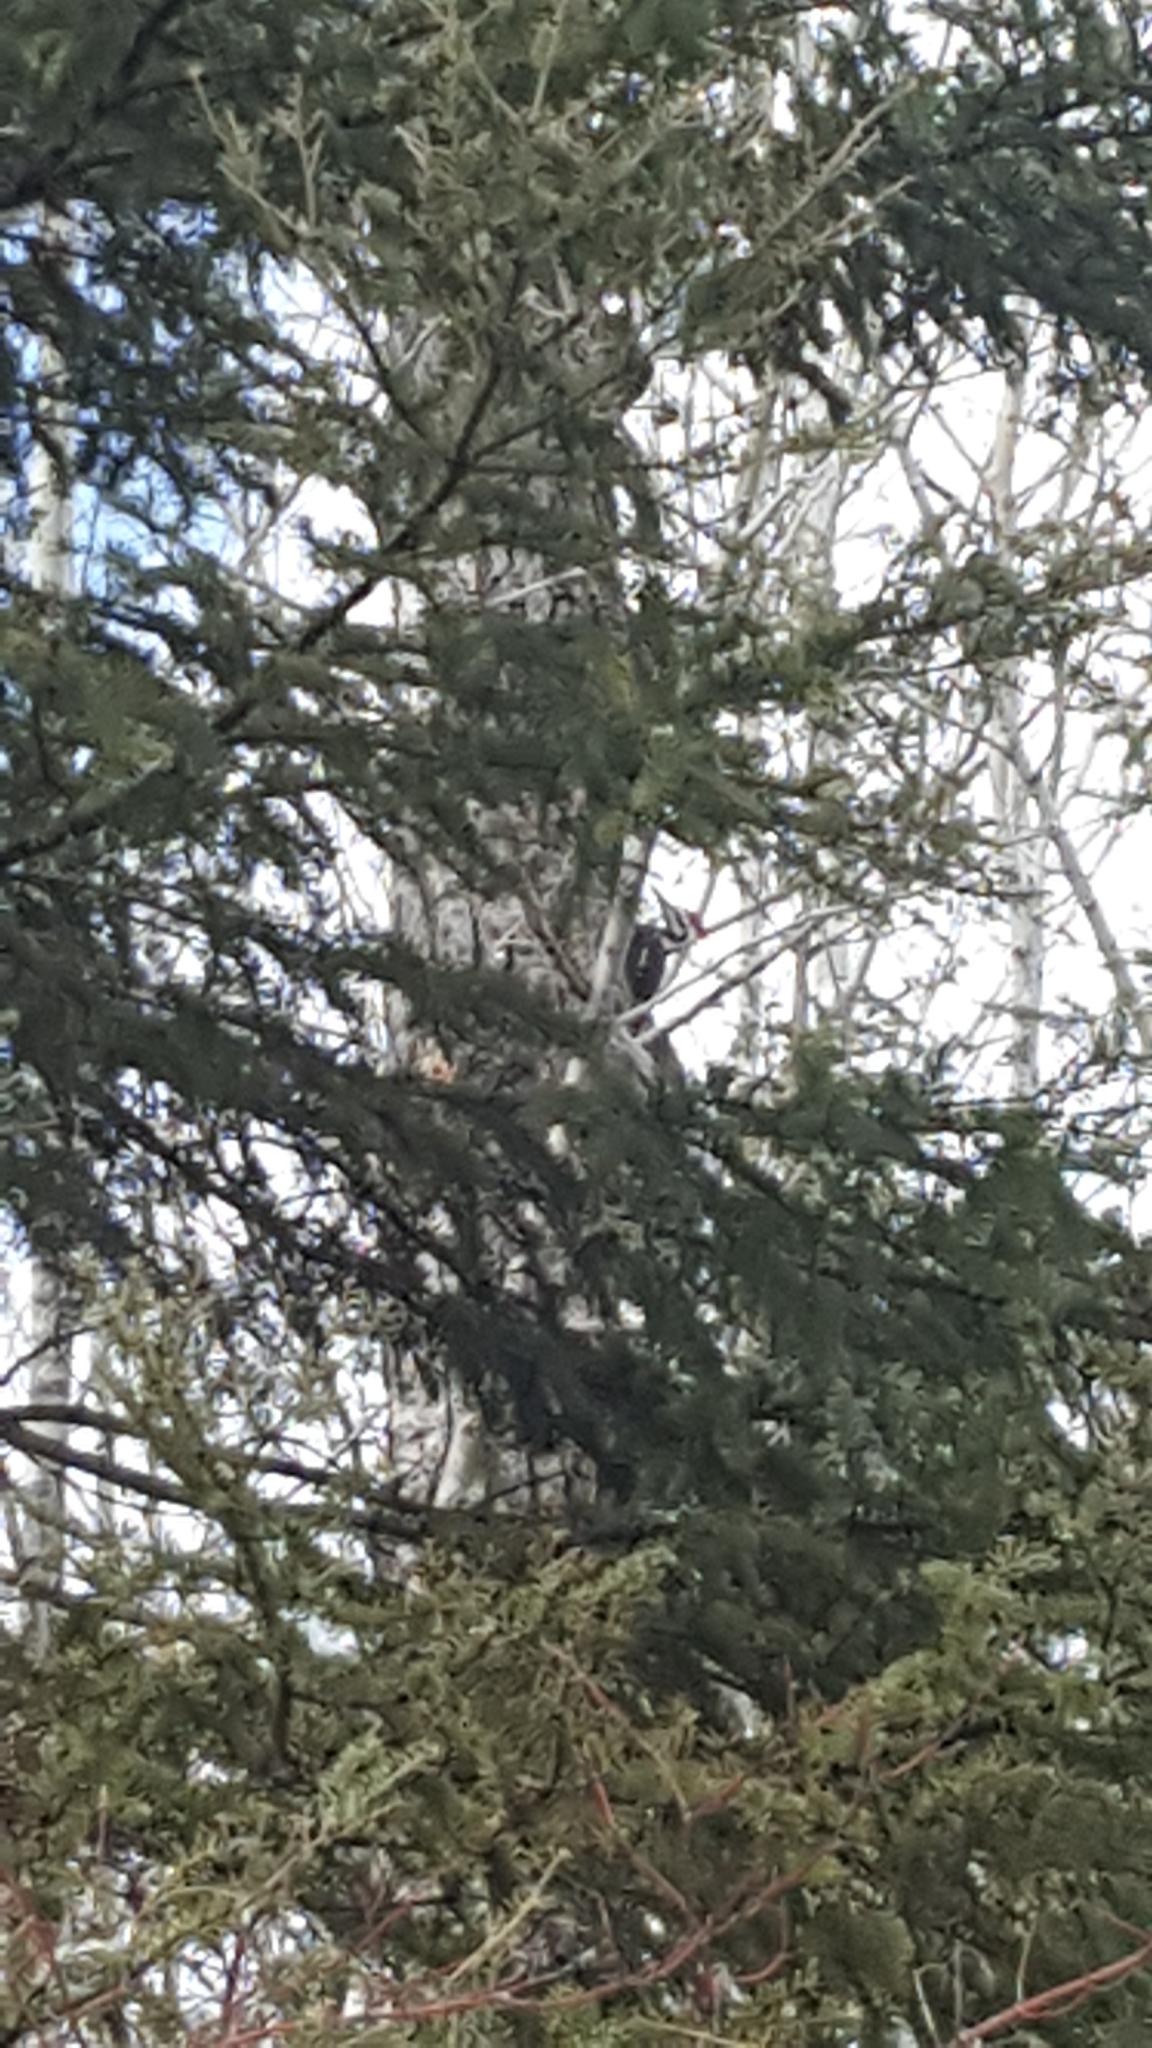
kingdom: Animalia
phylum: Chordata
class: Aves
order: Piciformes
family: Picidae
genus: Dryocopus
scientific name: Dryocopus pileatus
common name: Pileated woodpecker
